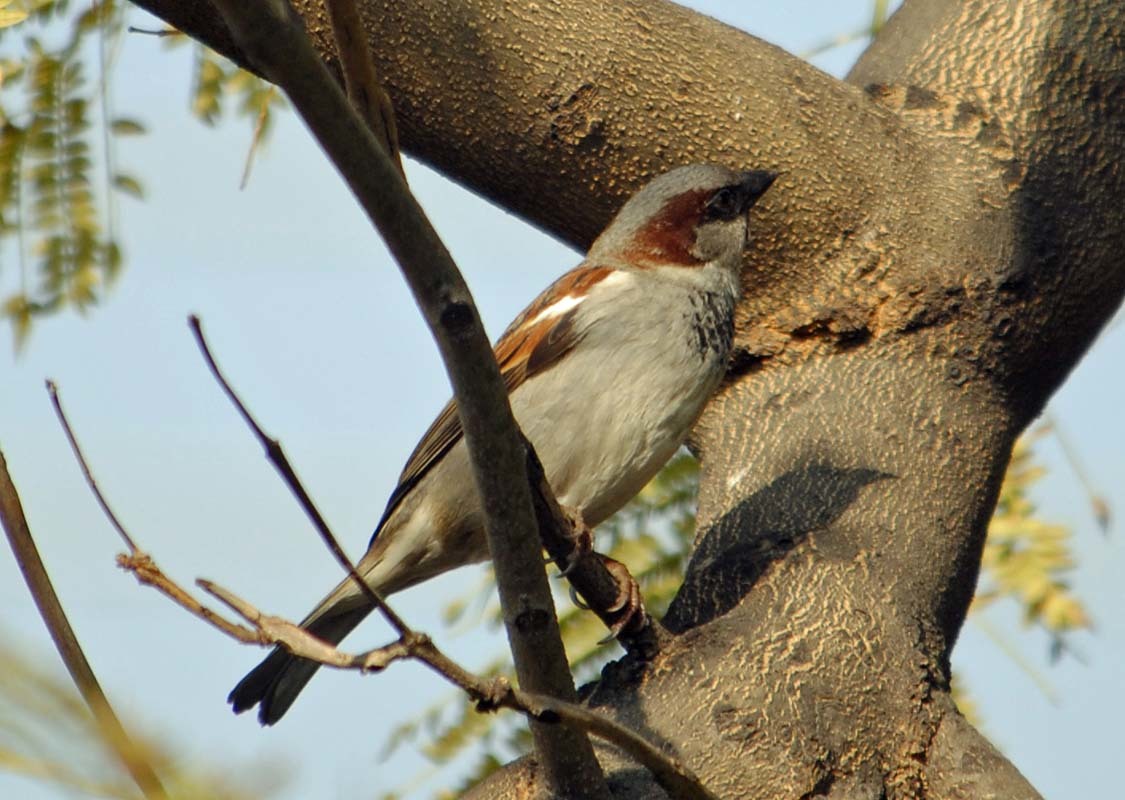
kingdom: Animalia
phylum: Chordata
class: Aves
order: Passeriformes
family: Passeridae
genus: Passer
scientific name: Passer domesticus
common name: House sparrow
